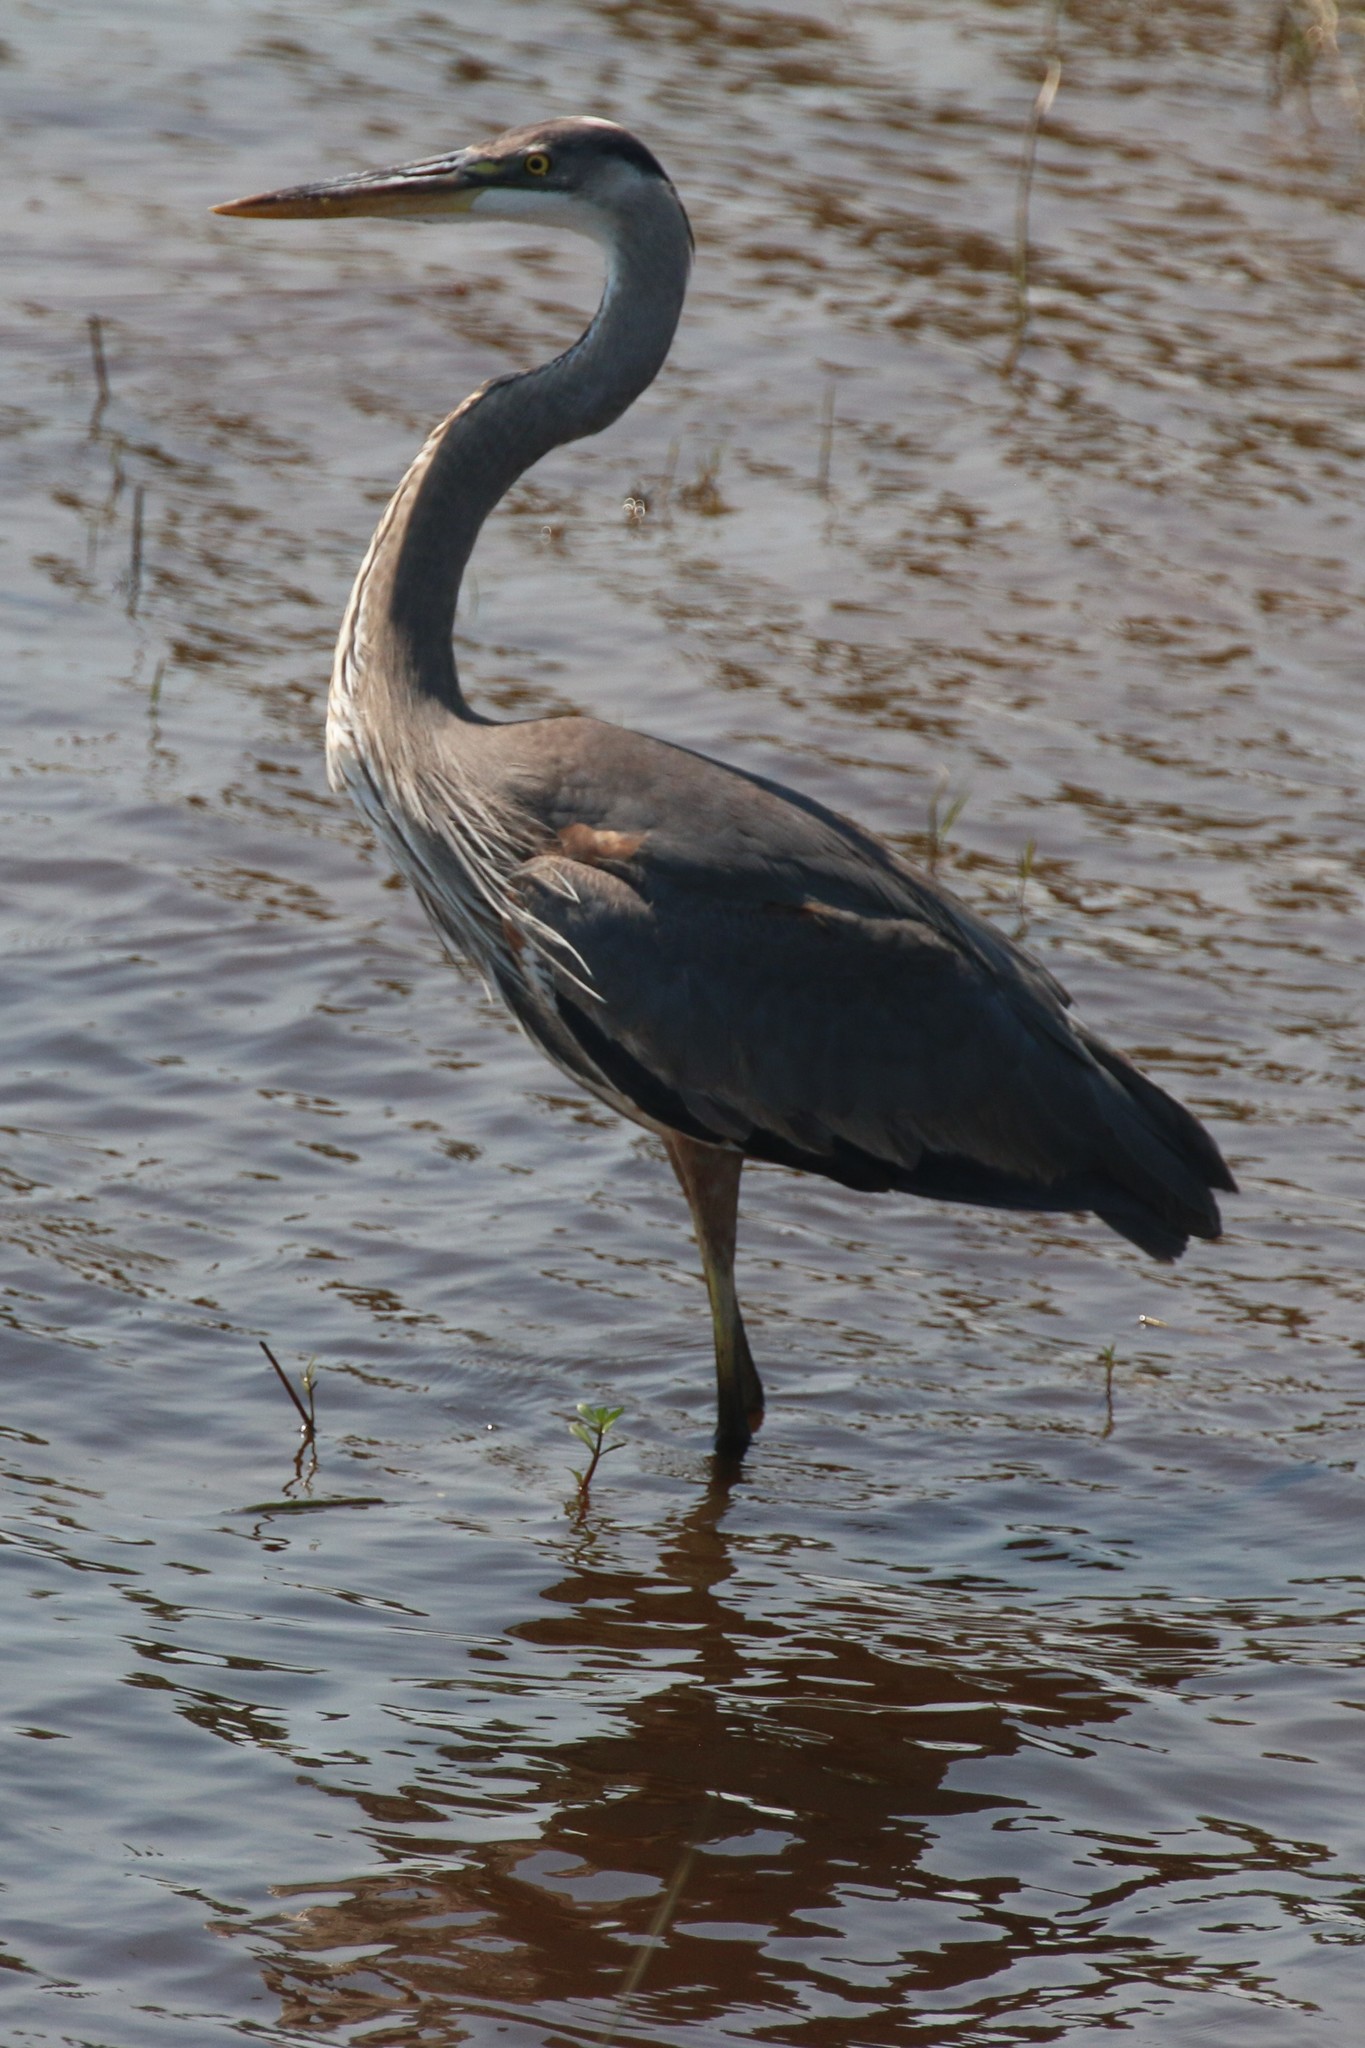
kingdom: Animalia
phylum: Chordata
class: Aves
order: Pelecaniformes
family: Ardeidae
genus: Ardea
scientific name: Ardea herodias
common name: Great blue heron
